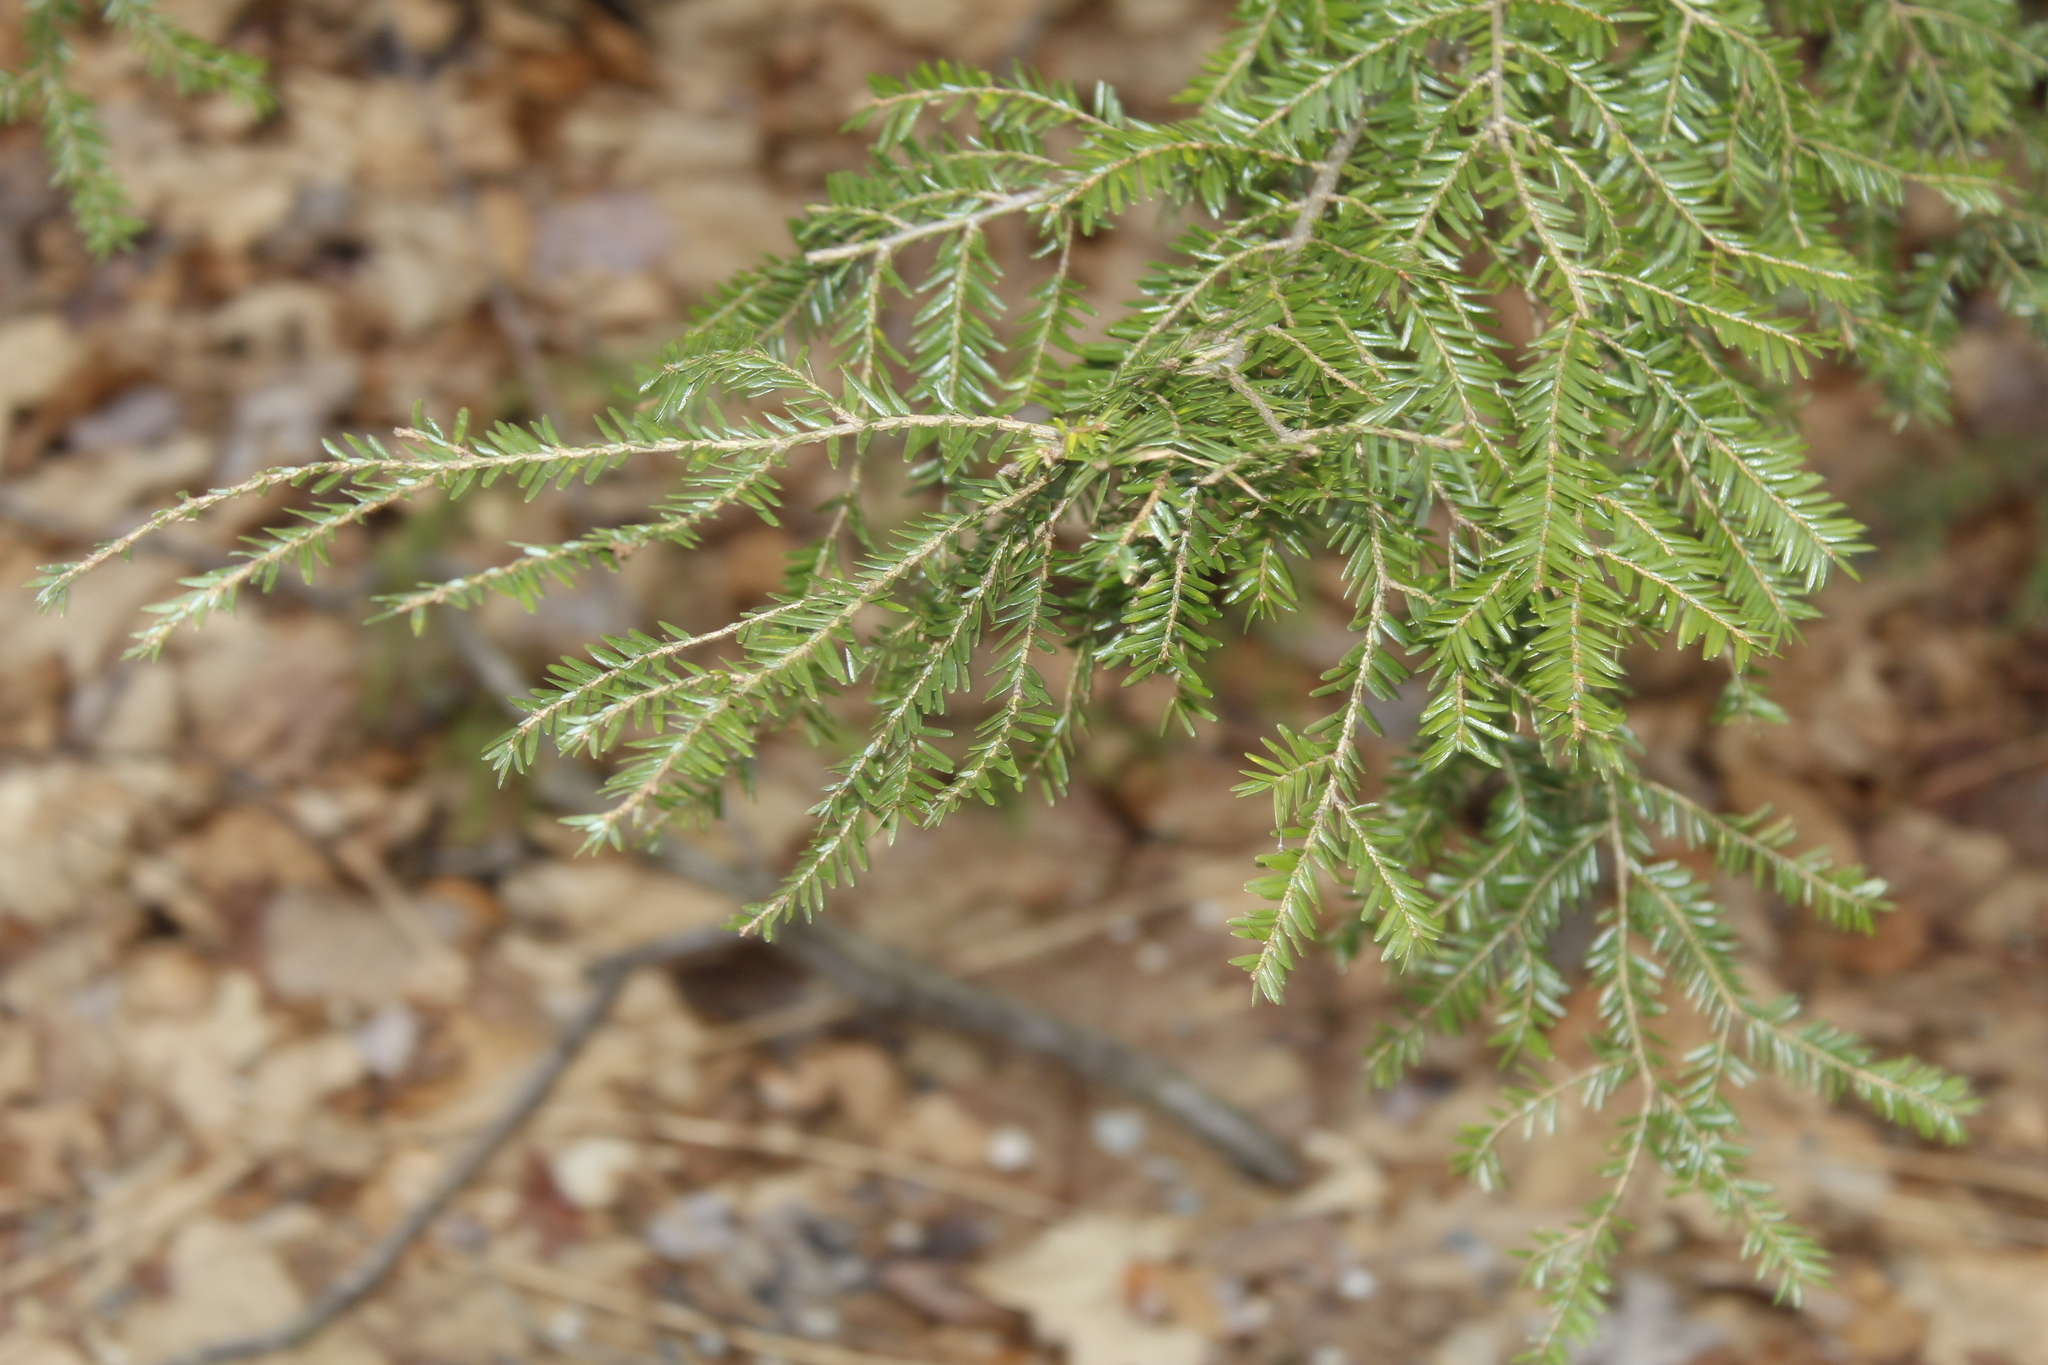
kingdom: Plantae
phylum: Tracheophyta
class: Pinopsida
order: Pinales
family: Pinaceae
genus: Tsuga
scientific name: Tsuga canadensis
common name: Eastern hemlock
